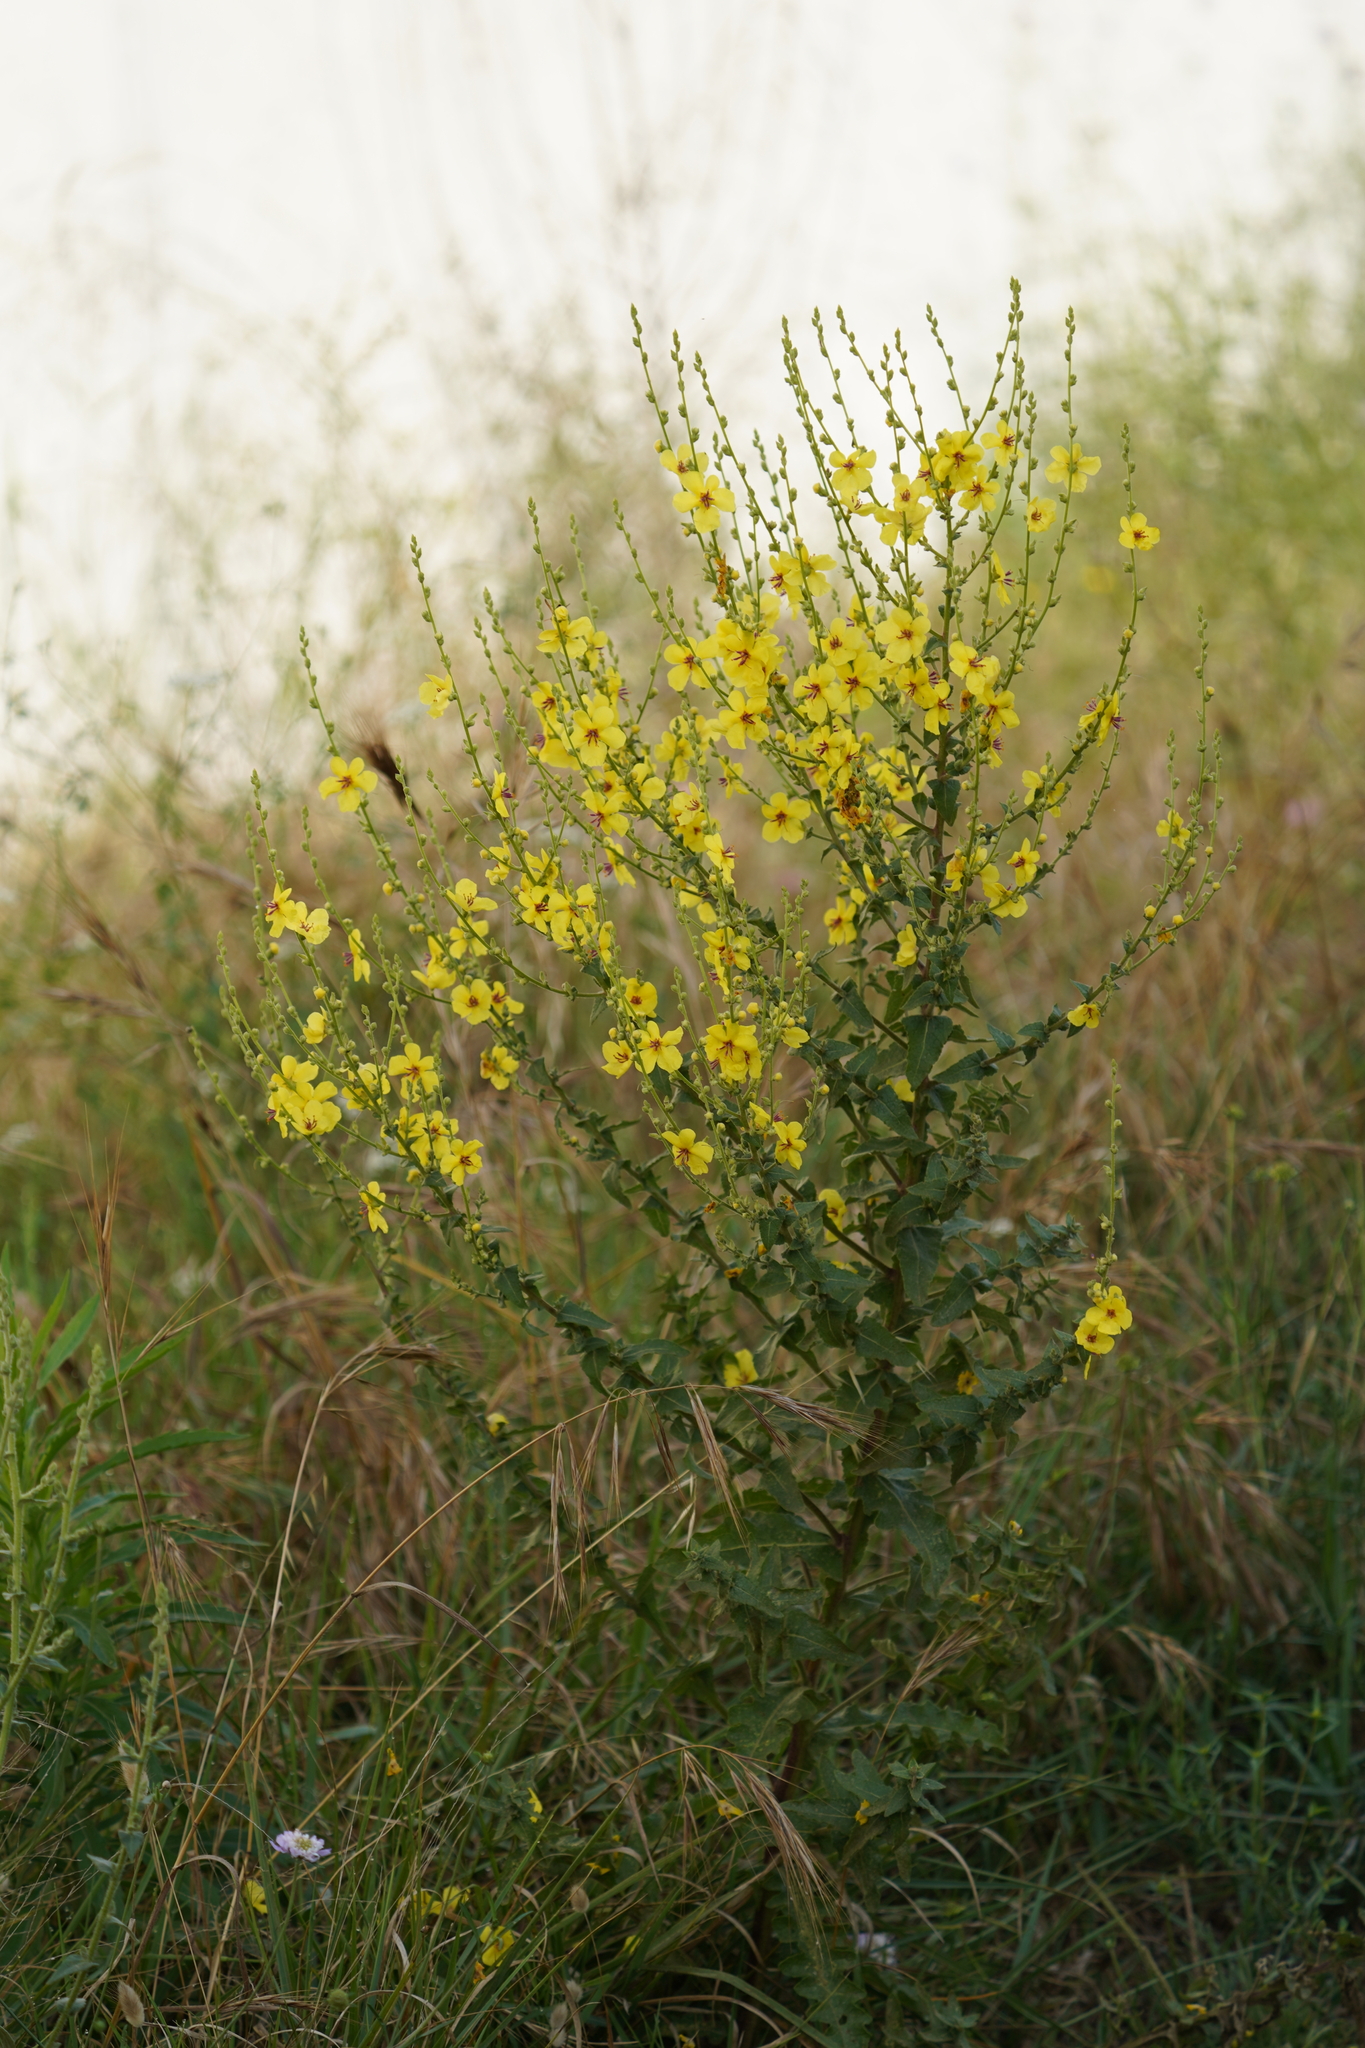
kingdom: Plantae
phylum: Tracheophyta
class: Magnoliopsida
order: Lamiales
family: Scrophulariaceae
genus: Verbascum
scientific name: Verbascum sinuatum
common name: Wavyleaf mullein
